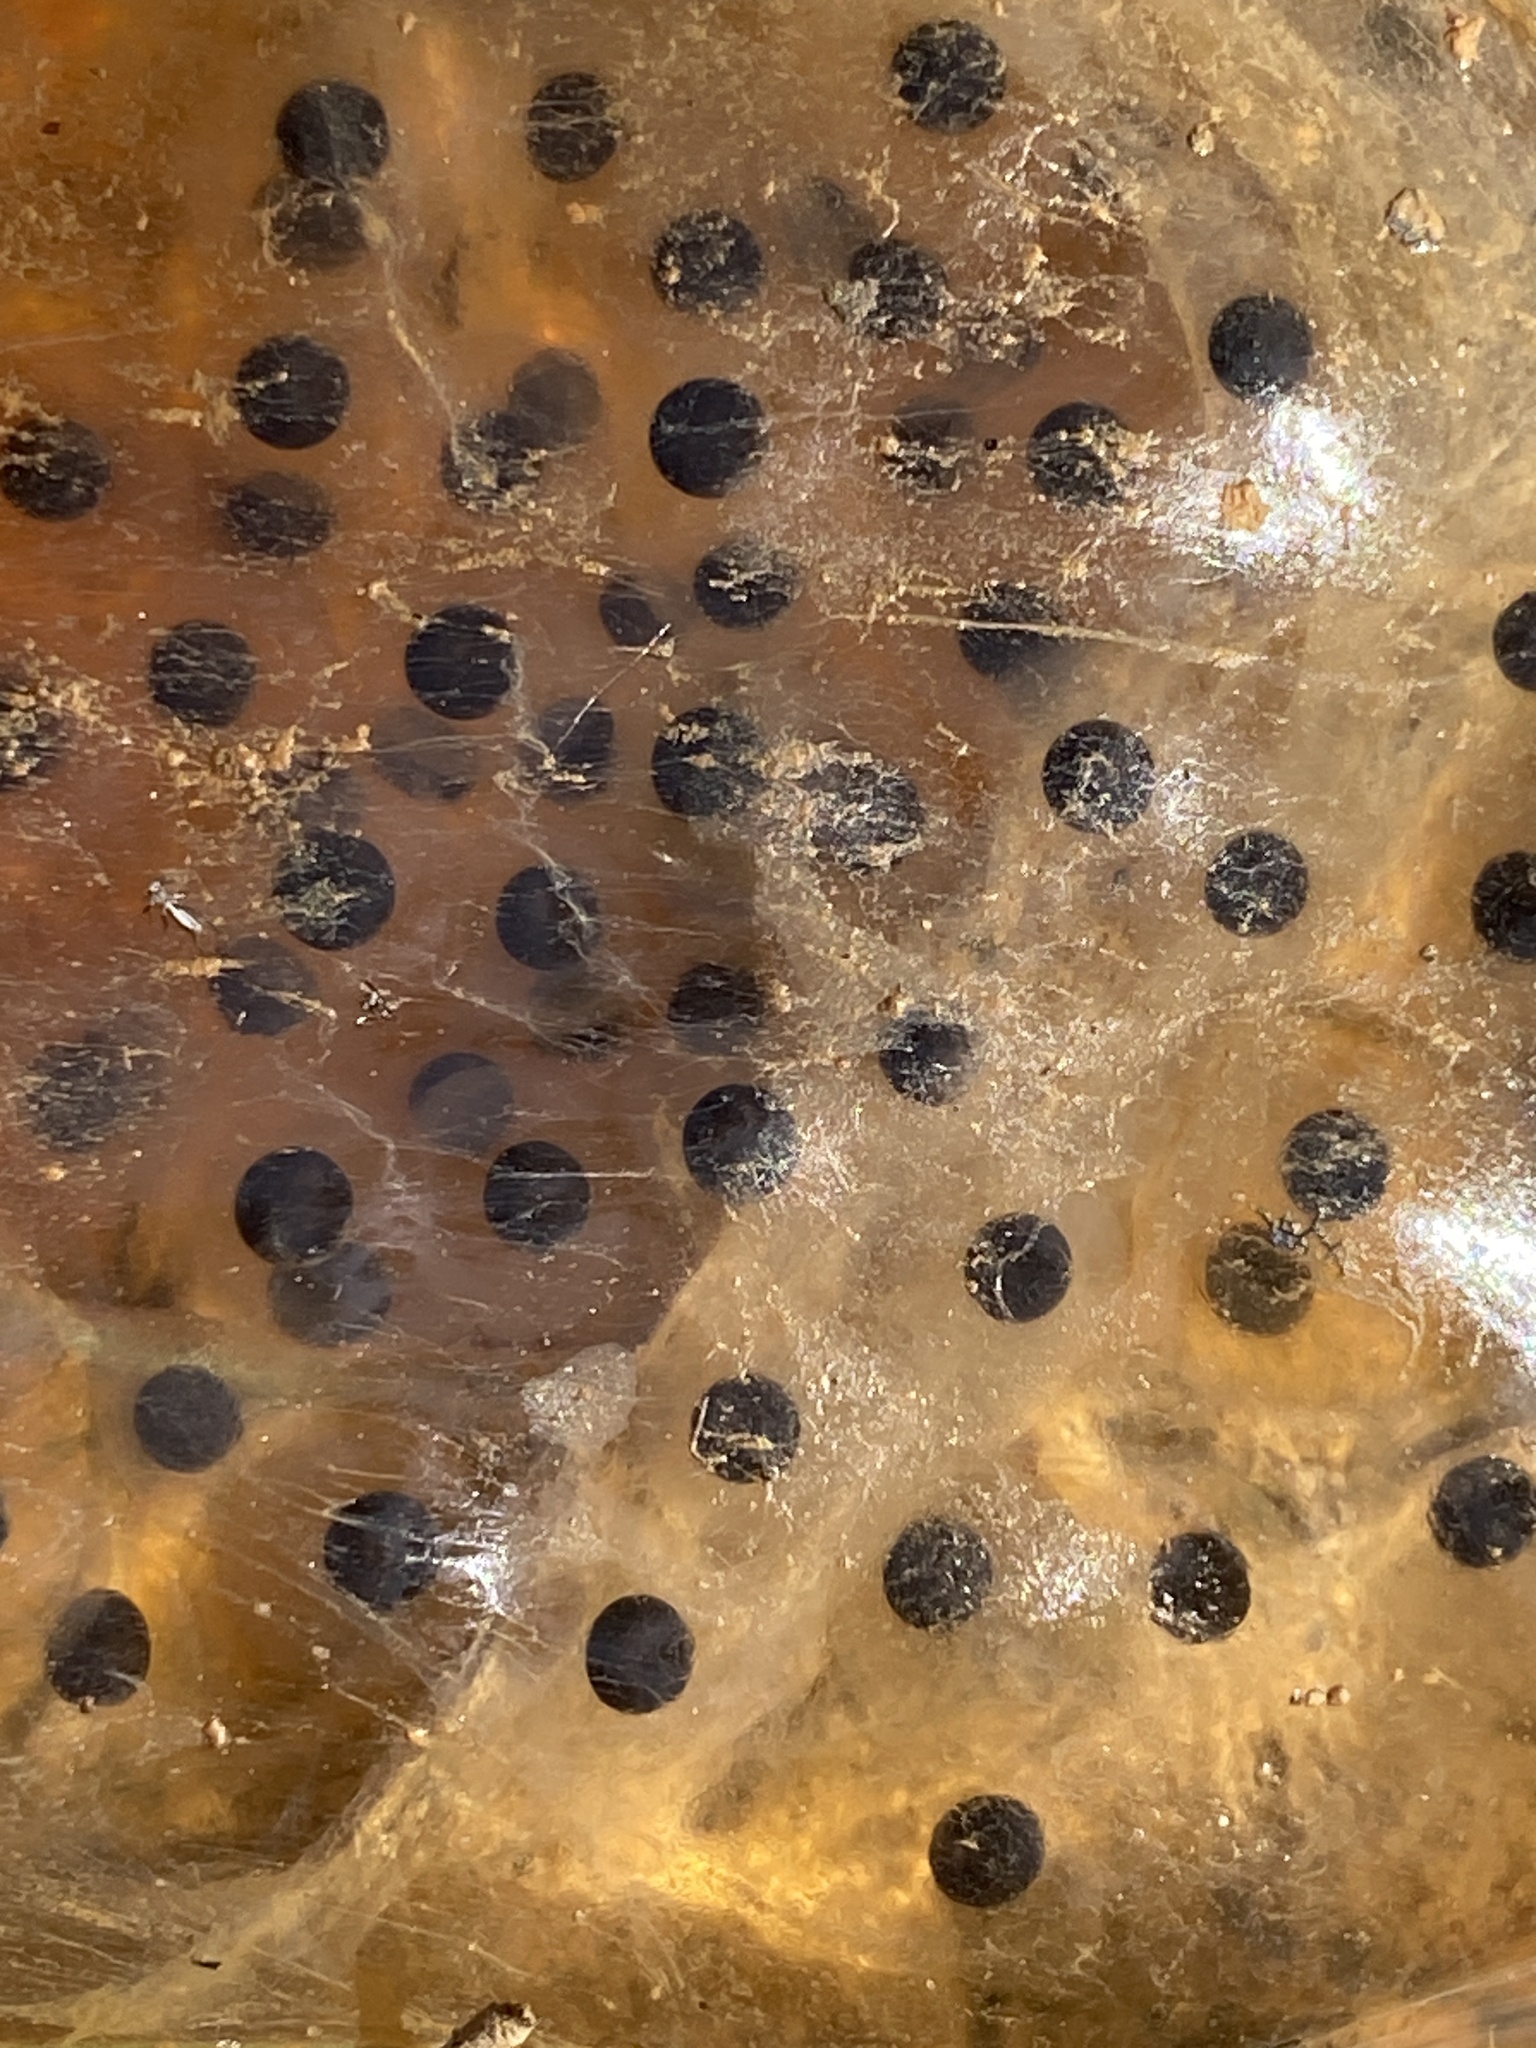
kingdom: Animalia
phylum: Chordata
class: Amphibia
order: Caudata
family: Ambystomatidae
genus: Ambystoma
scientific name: Ambystoma maculatum
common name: Spotted salamander
